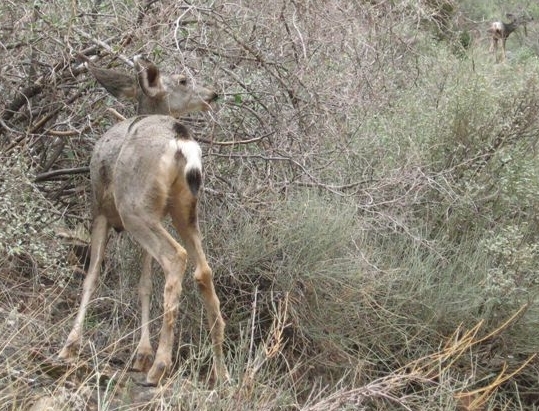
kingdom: Animalia
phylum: Chordata
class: Mammalia
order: Artiodactyla
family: Cervidae
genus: Odocoileus
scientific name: Odocoileus hemionus
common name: Mule deer
